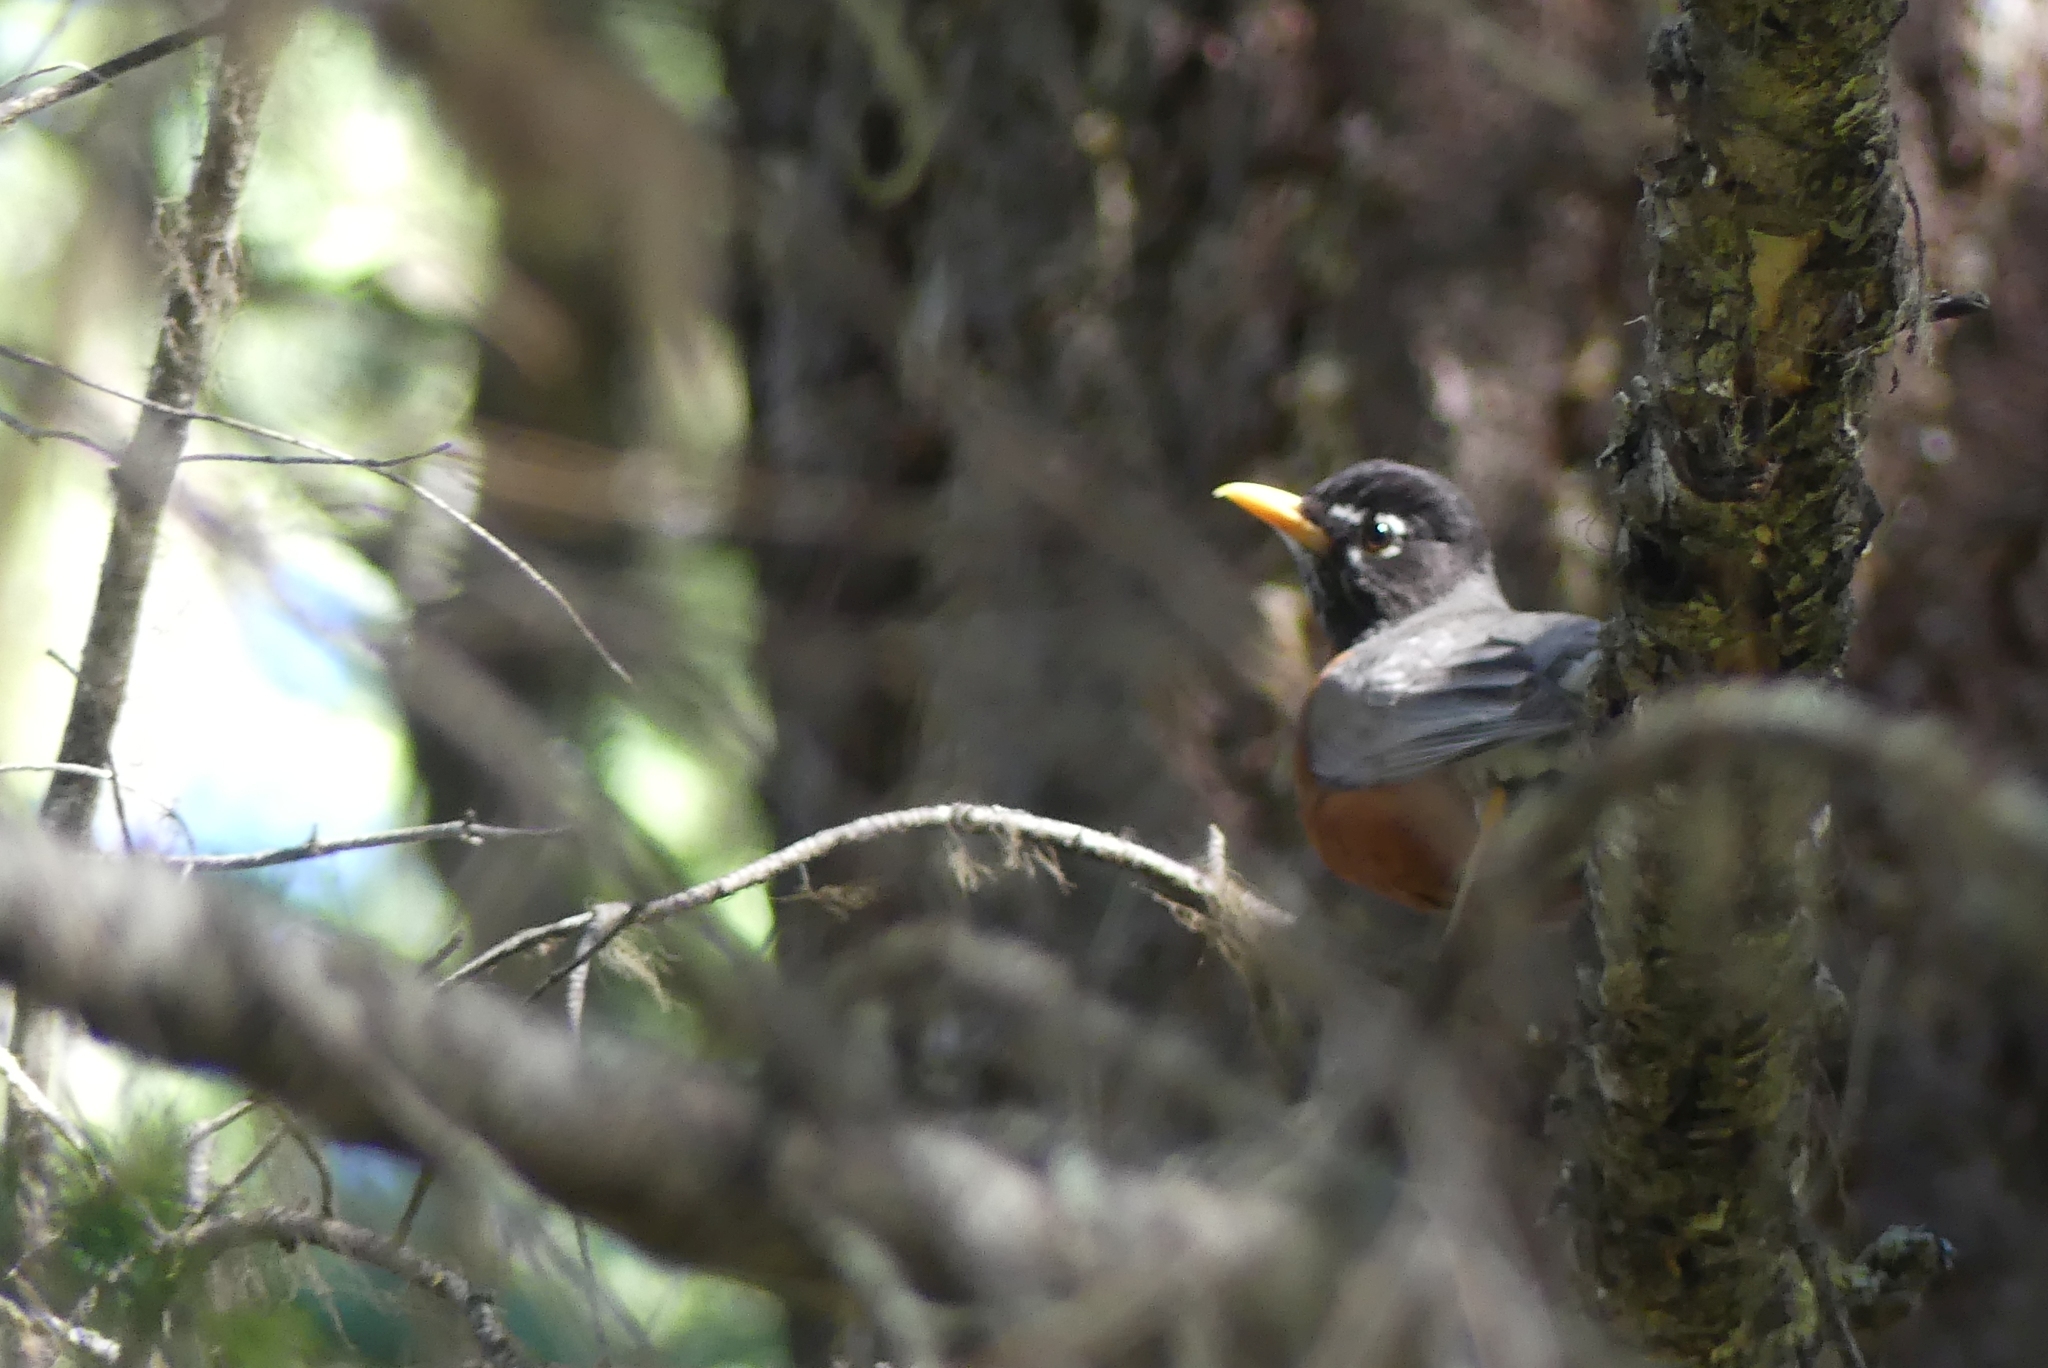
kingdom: Animalia
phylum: Chordata
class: Aves
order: Passeriformes
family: Turdidae
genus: Turdus
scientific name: Turdus migratorius
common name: American robin
